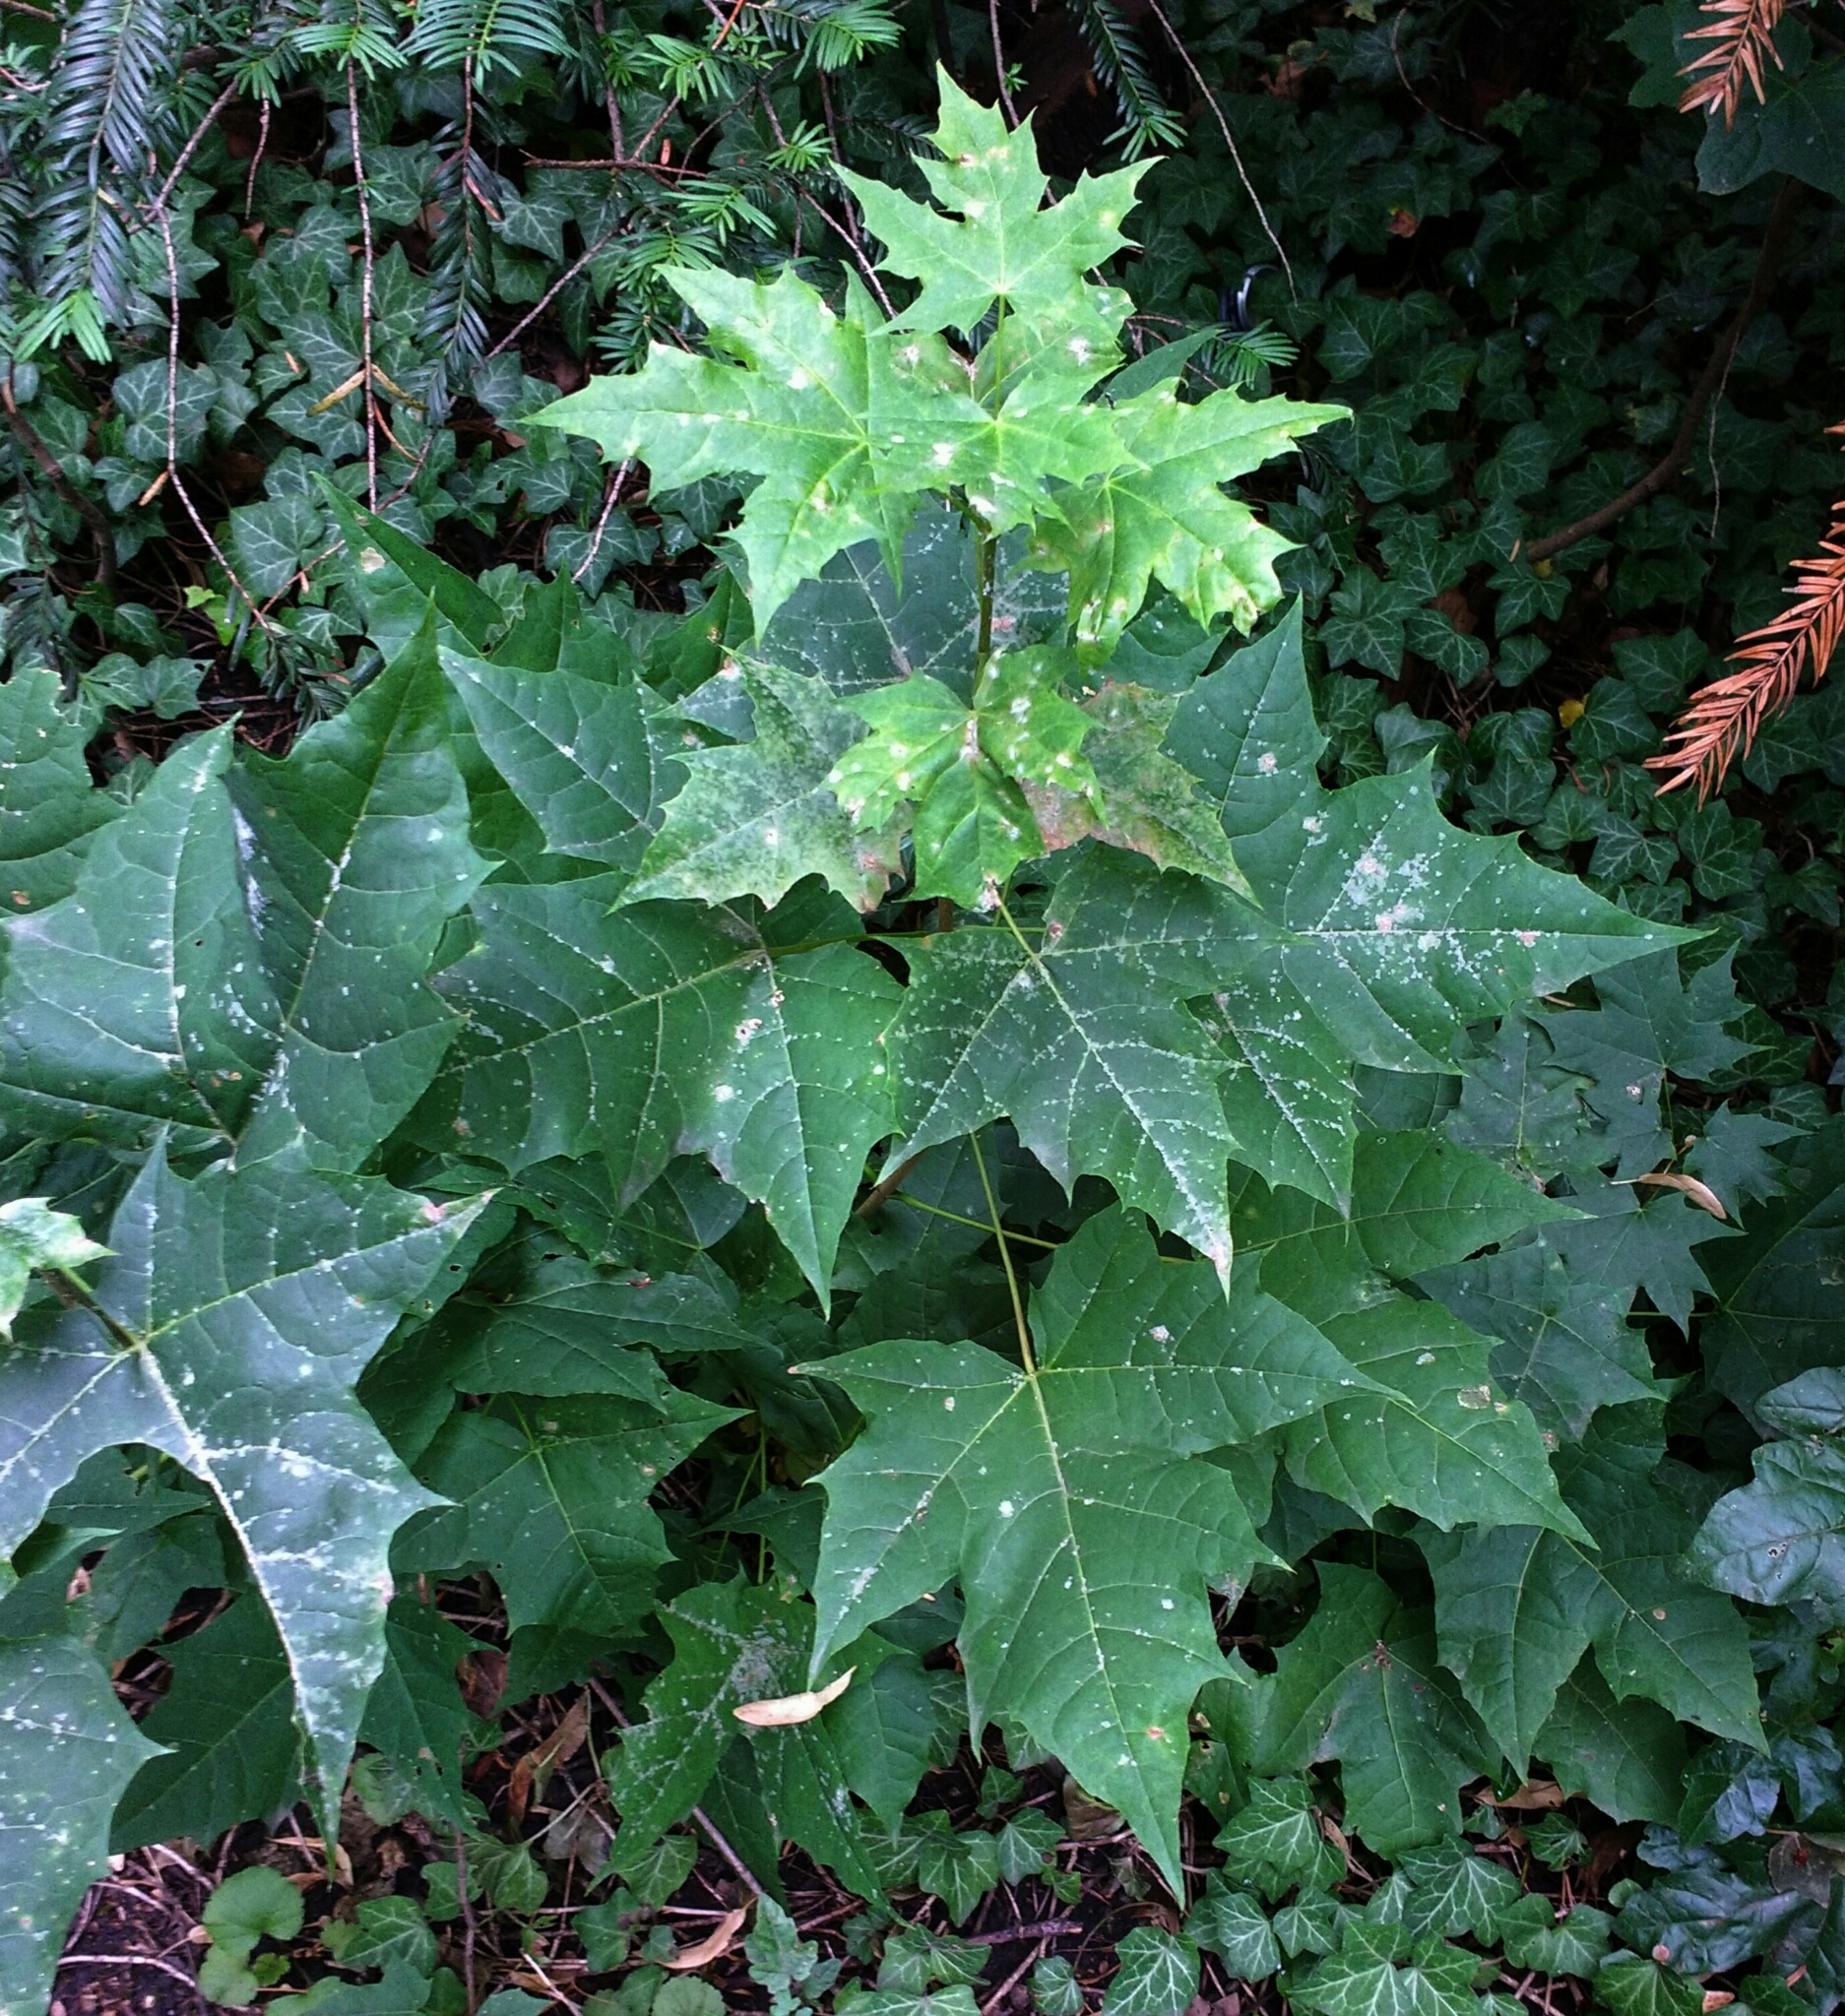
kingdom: Plantae
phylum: Tracheophyta
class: Magnoliopsida
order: Sapindales
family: Sapindaceae
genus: Acer
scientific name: Acer platanoides
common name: Norway maple
